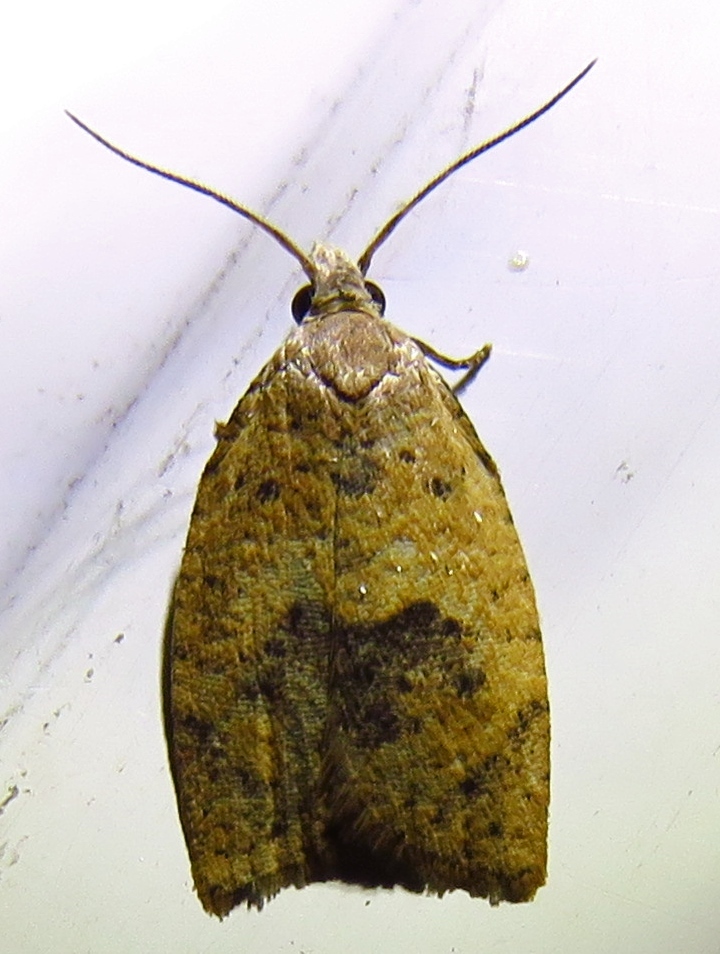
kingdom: Animalia
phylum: Arthropoda
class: Insecta
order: Lepidoptera
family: Tortricidae
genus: Sparganothoides
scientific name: Sparganothoides lentiginosana
